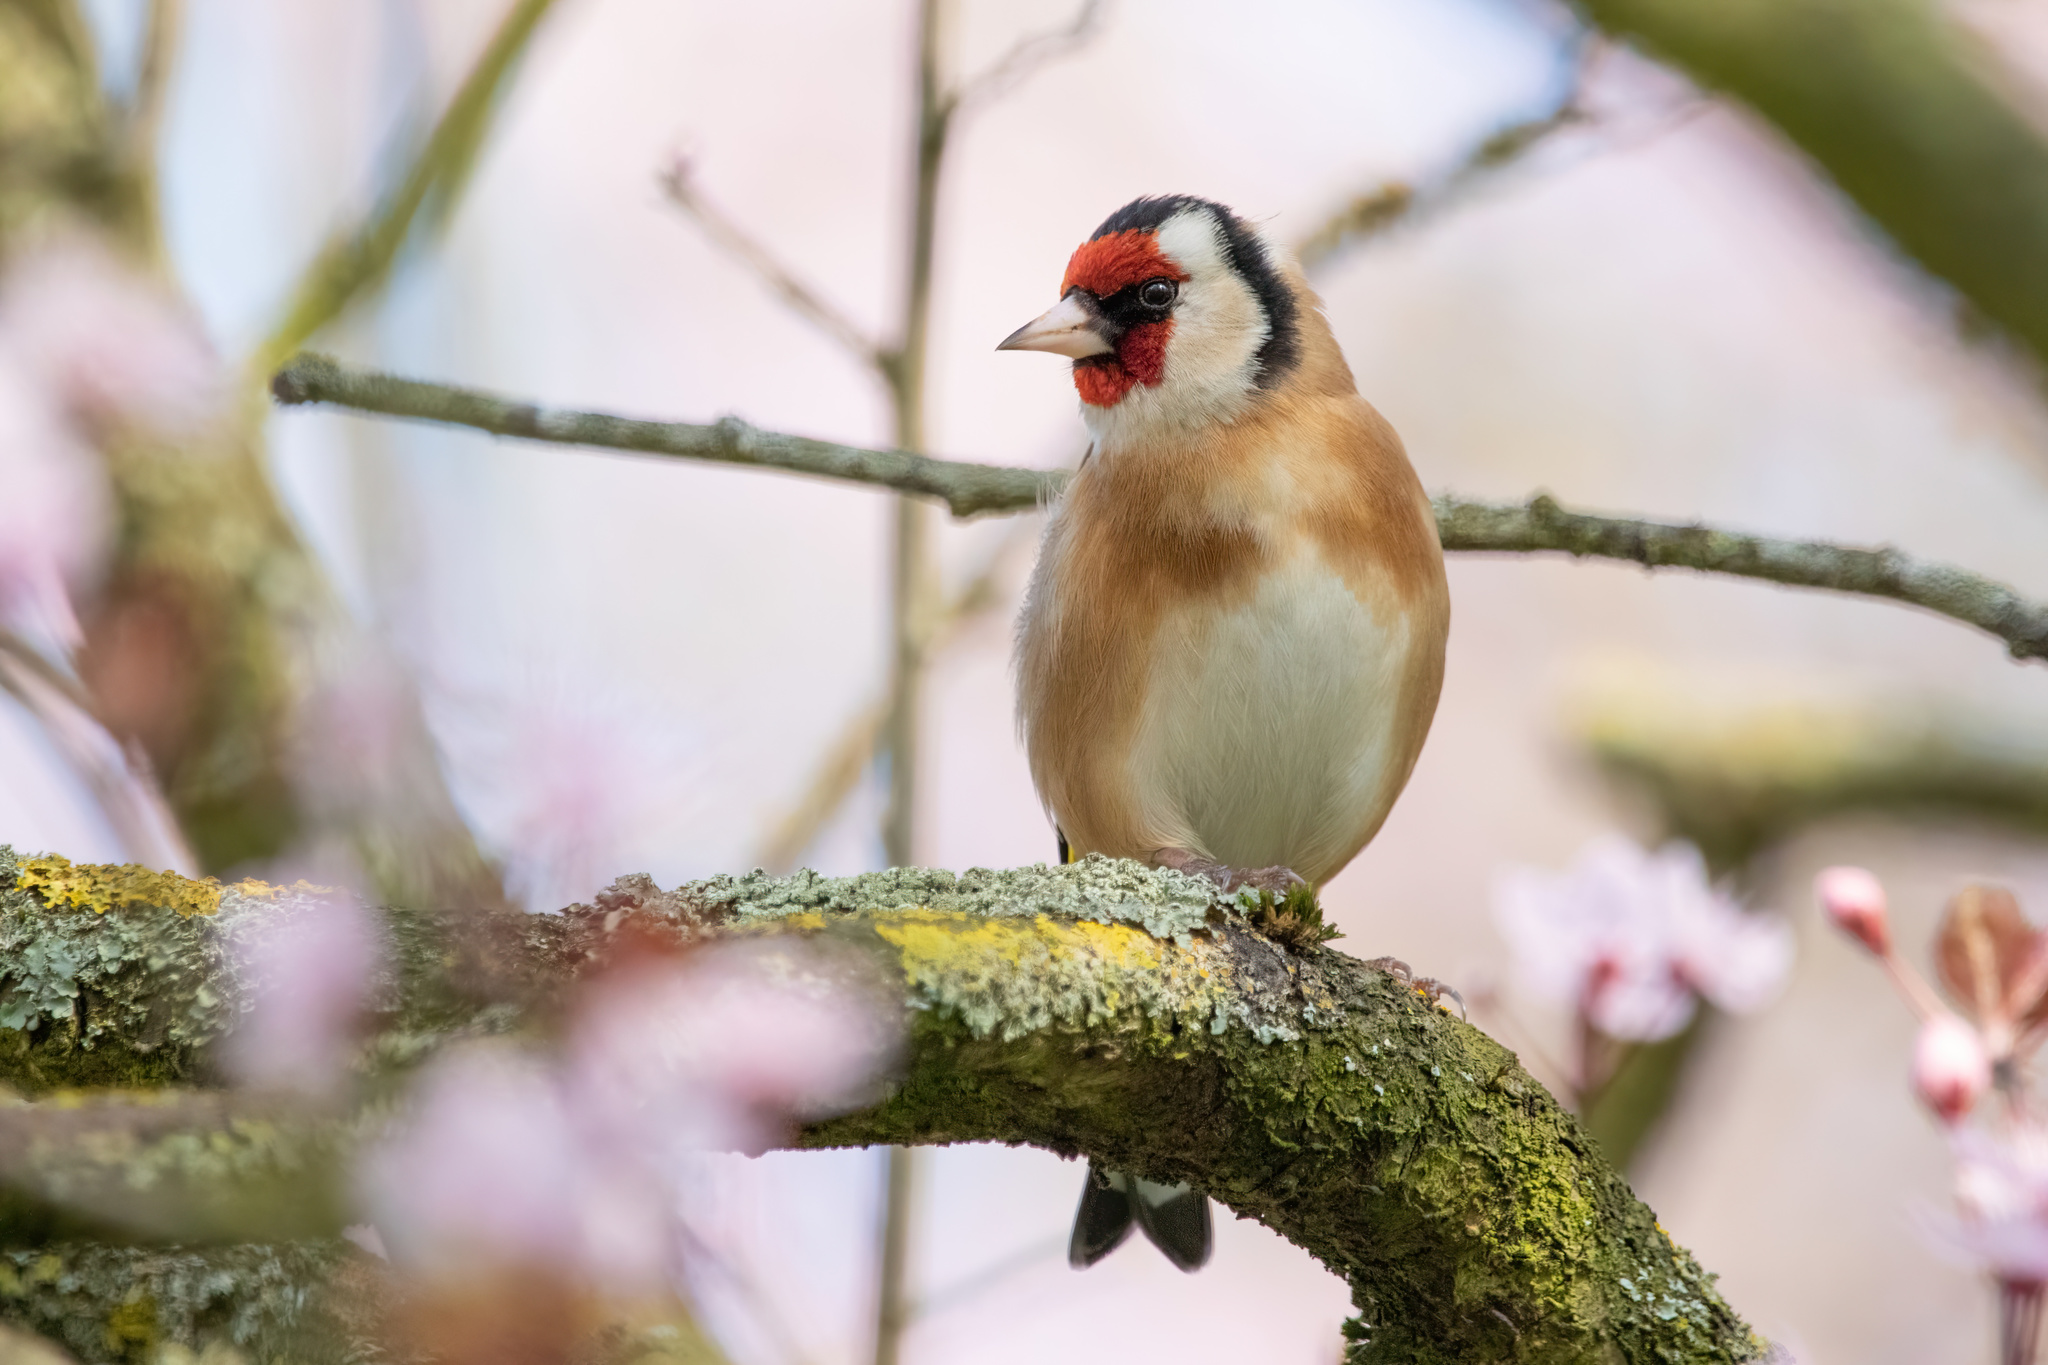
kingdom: Animalia
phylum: Chordata
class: Aves
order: Passeriformes
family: Fringillidae
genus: Carduelis
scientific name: Carduelis carduelis
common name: European goldfinch
